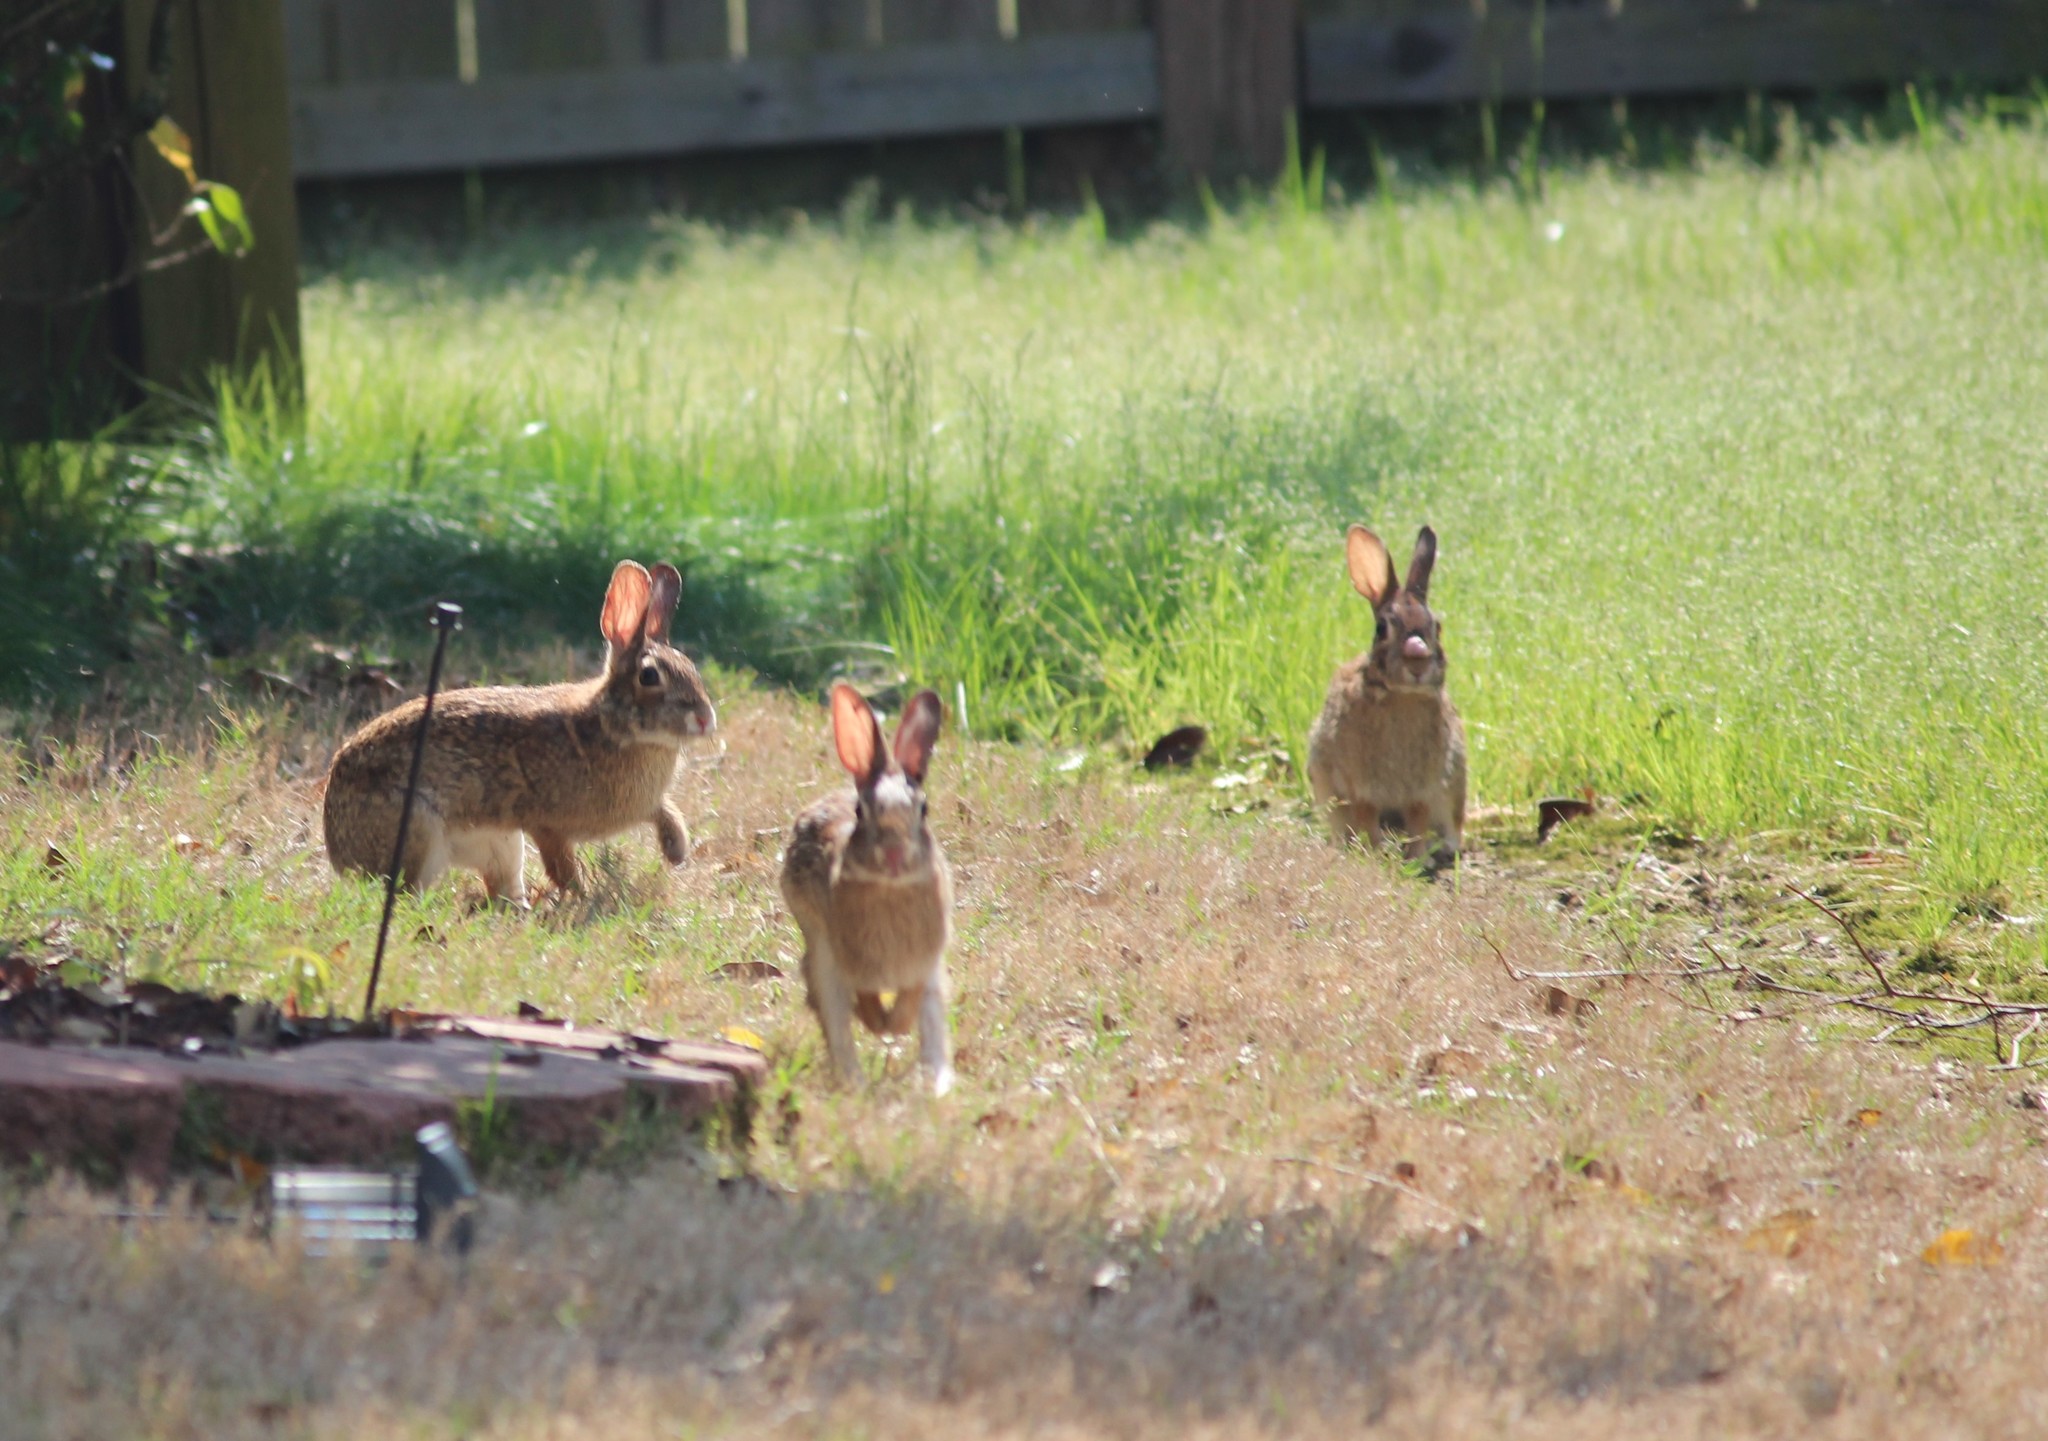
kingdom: Animalia
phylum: Chordata
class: Mammalia
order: Lagomorpha
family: Leporidae
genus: Sylvilagus
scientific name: Sylvilagus floridanus
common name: Eastern cottontail
